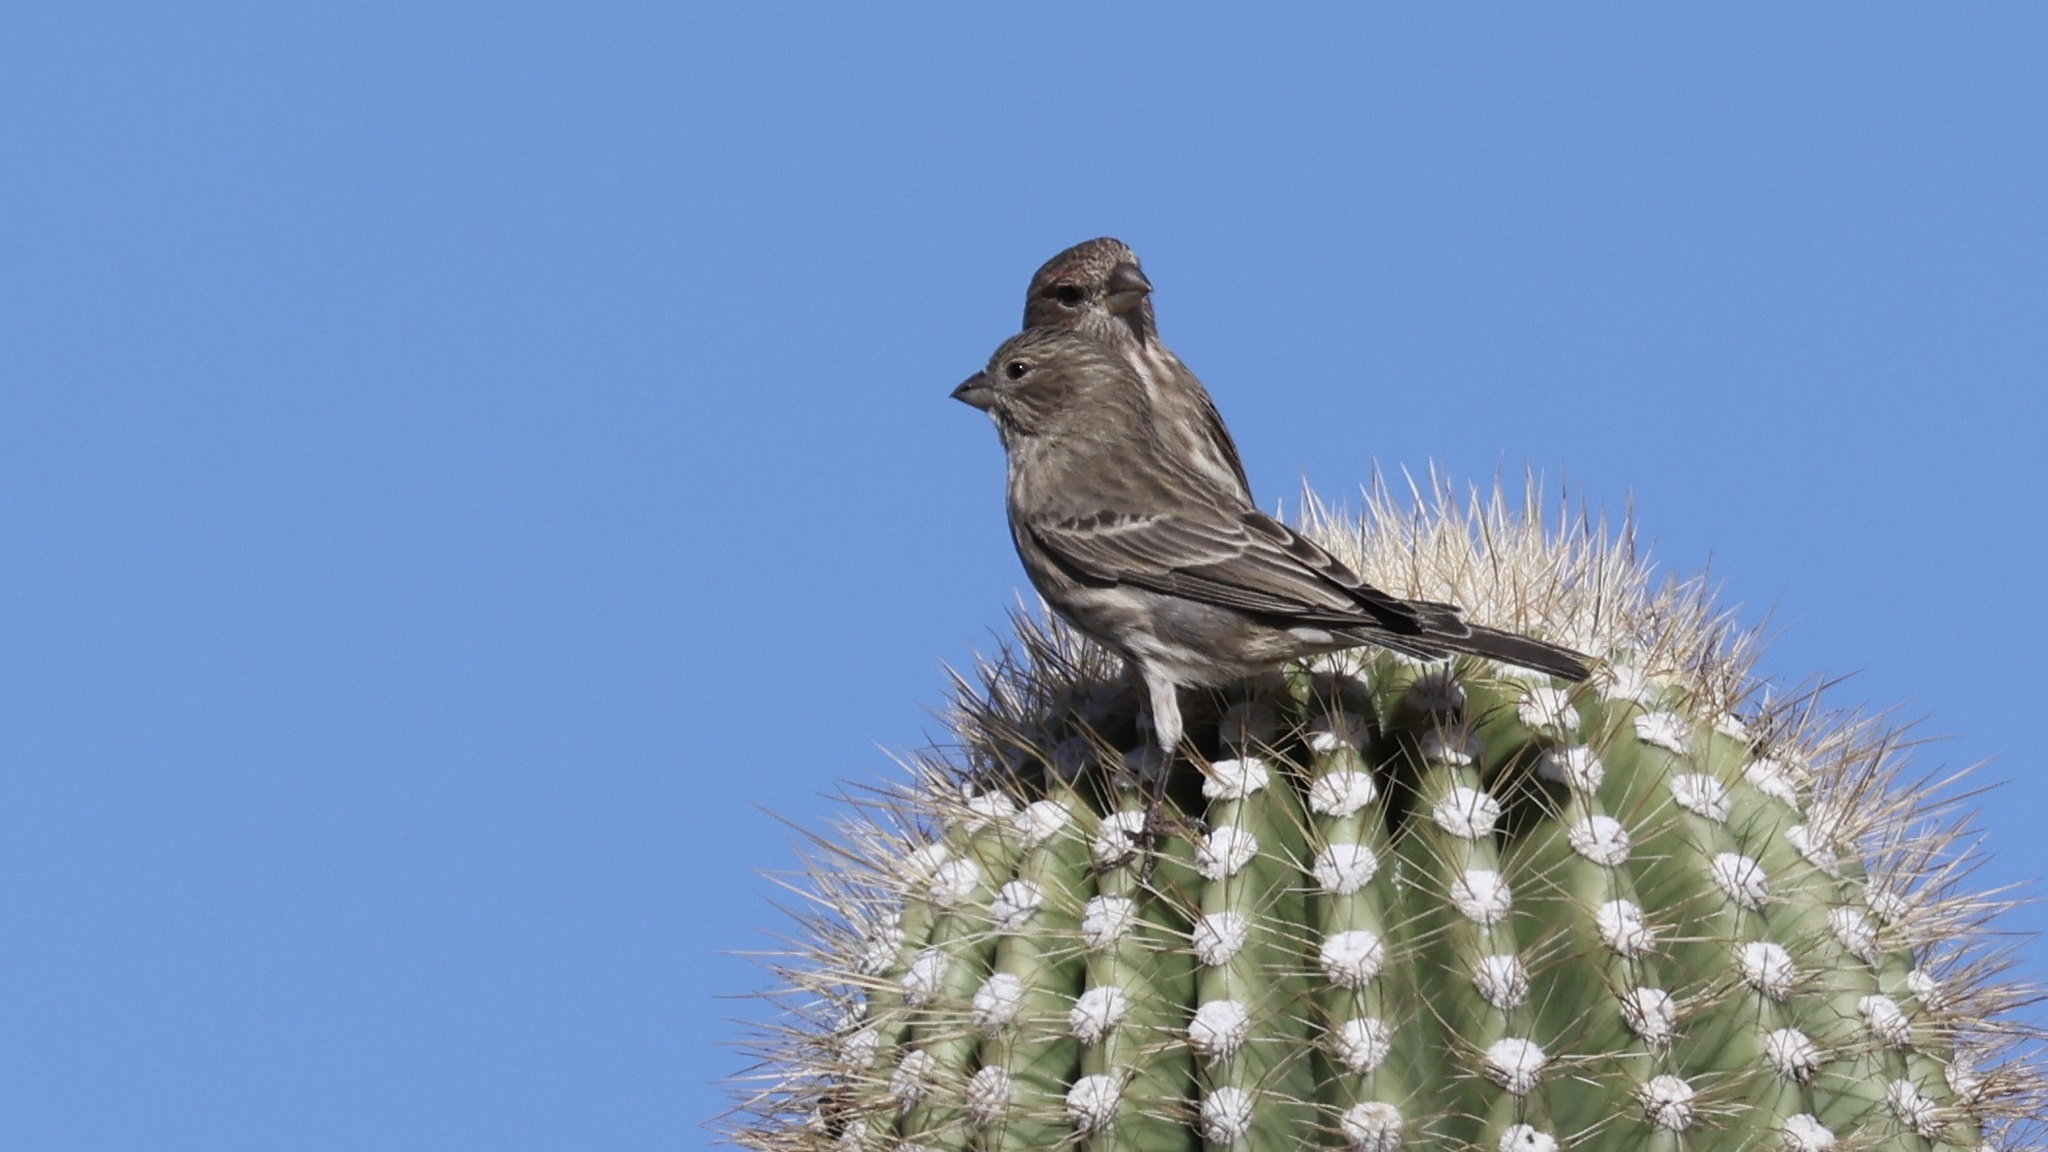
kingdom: Animalia
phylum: Chordata
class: Aves
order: Passeriformes
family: Fringillidae
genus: Haemorhous
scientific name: Haemorhous mexicanus
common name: House finch
